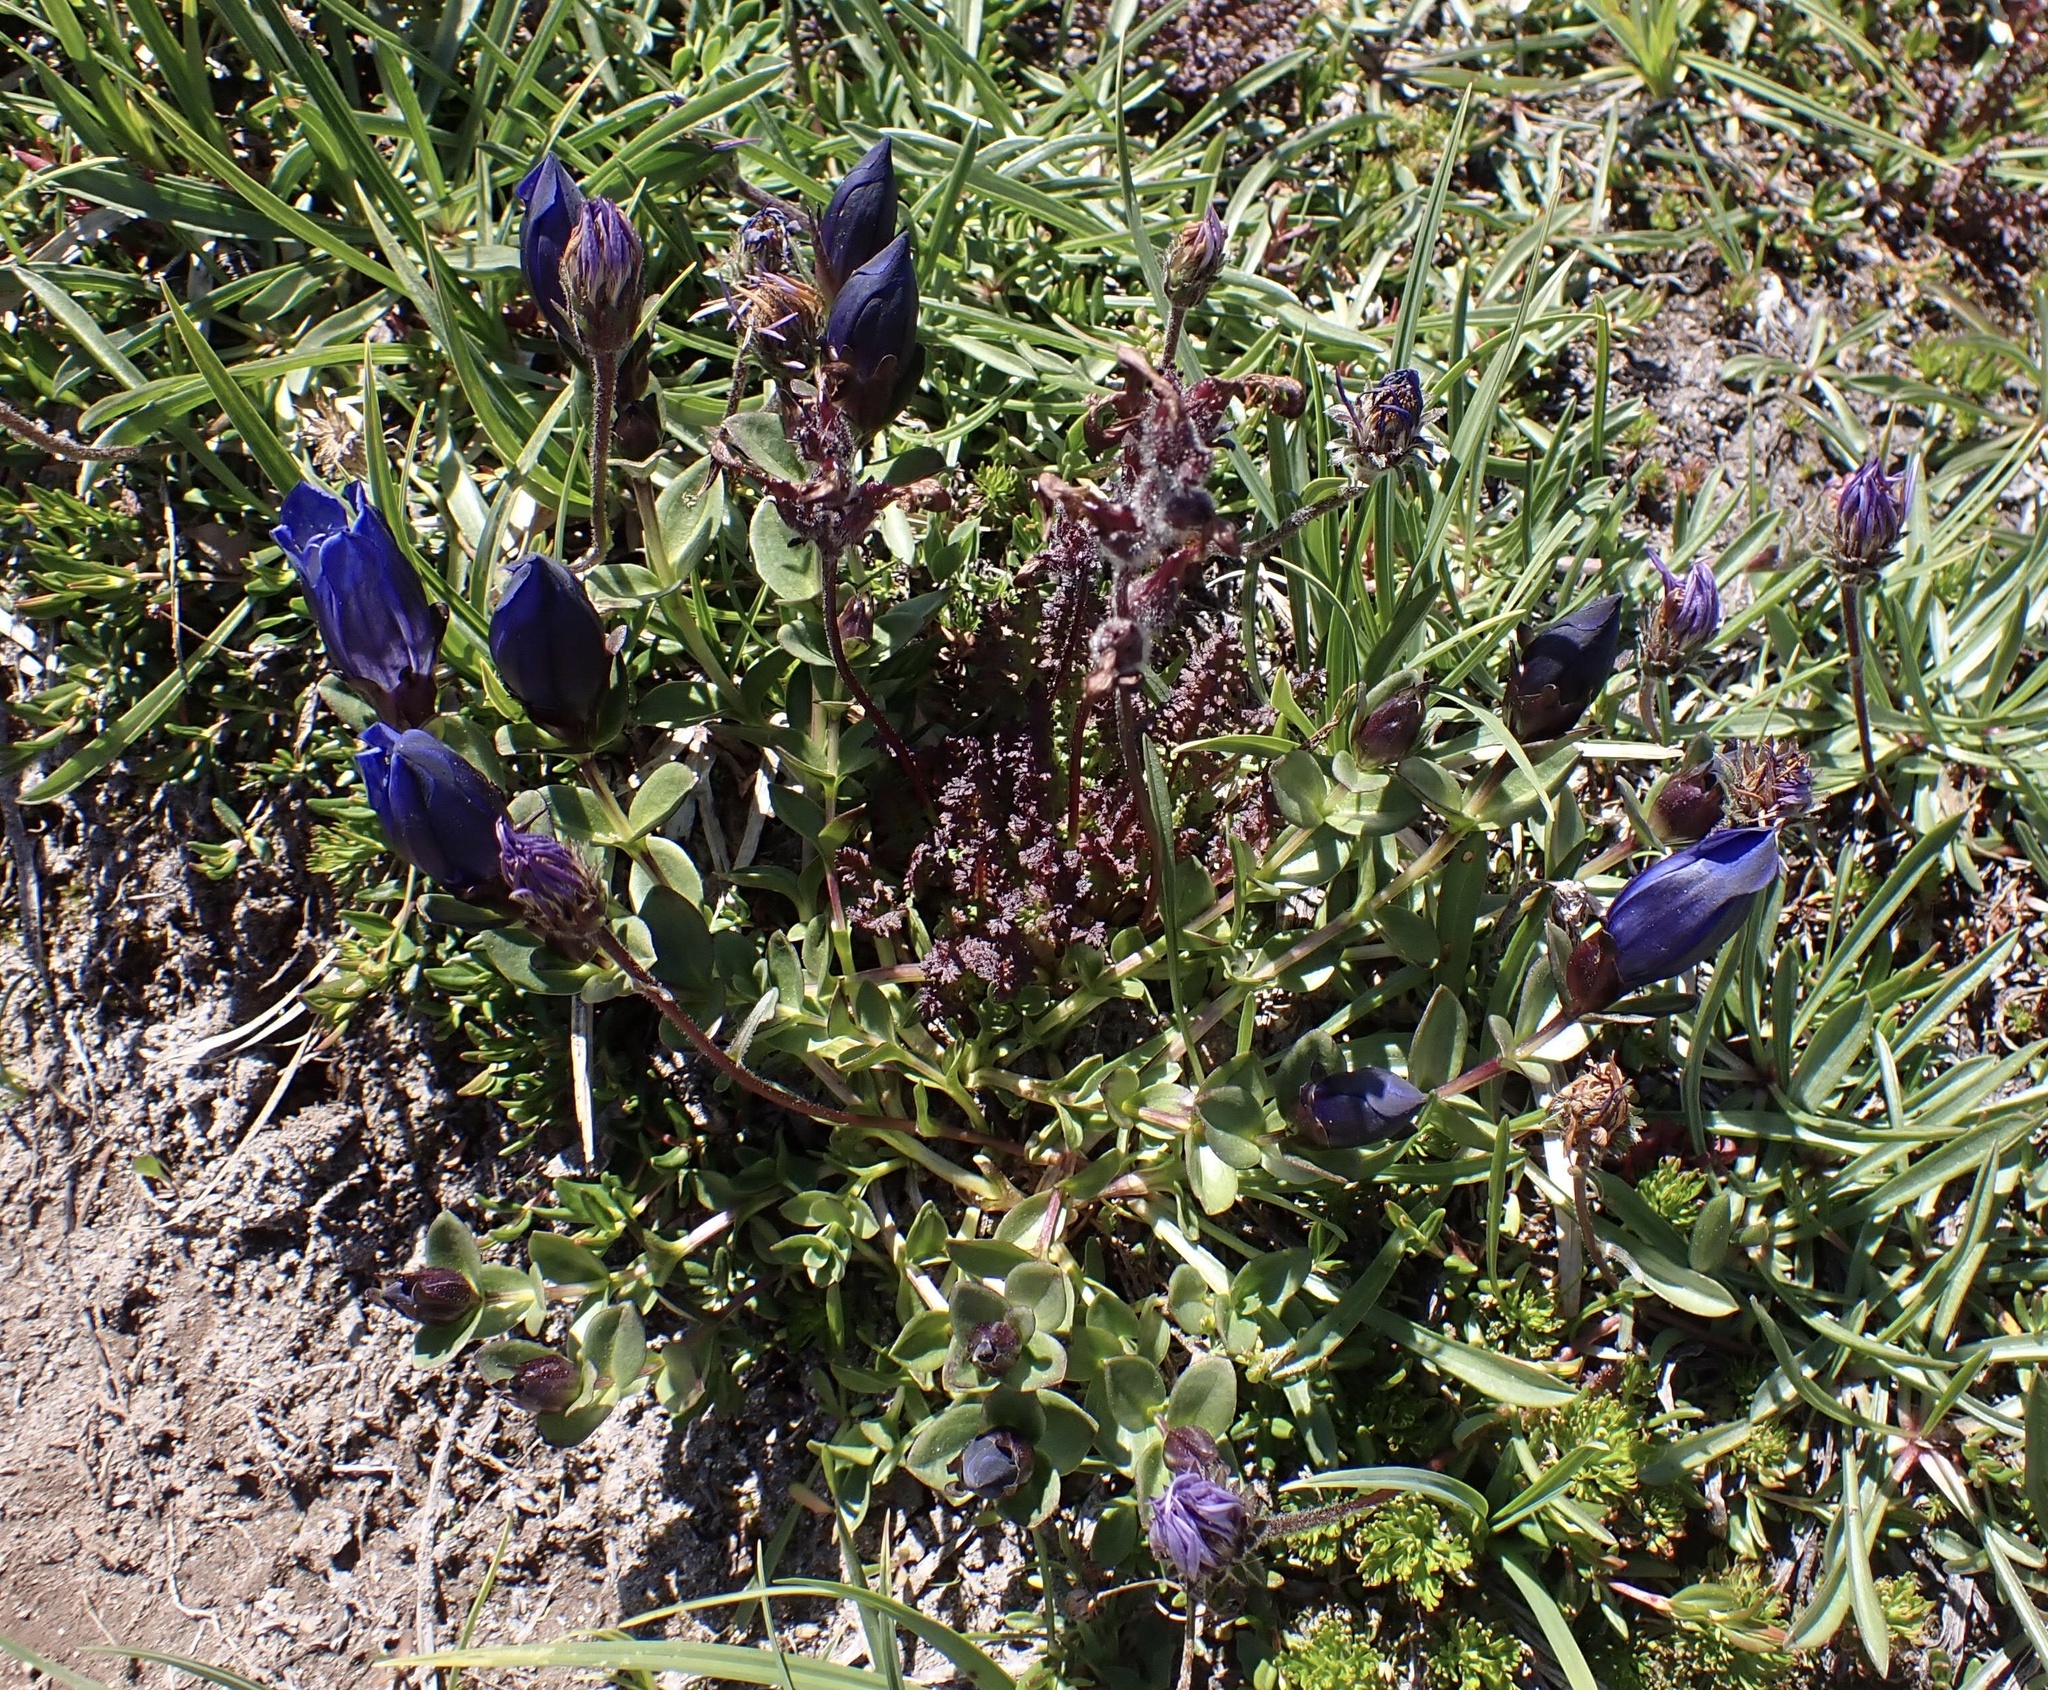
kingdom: Plantae
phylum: Tracheophyta
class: Magnoliopsida
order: Gentianales
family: Gentianaceae
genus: Gentiana
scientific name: Gentiana calycosa
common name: Rainier pleated gentian
